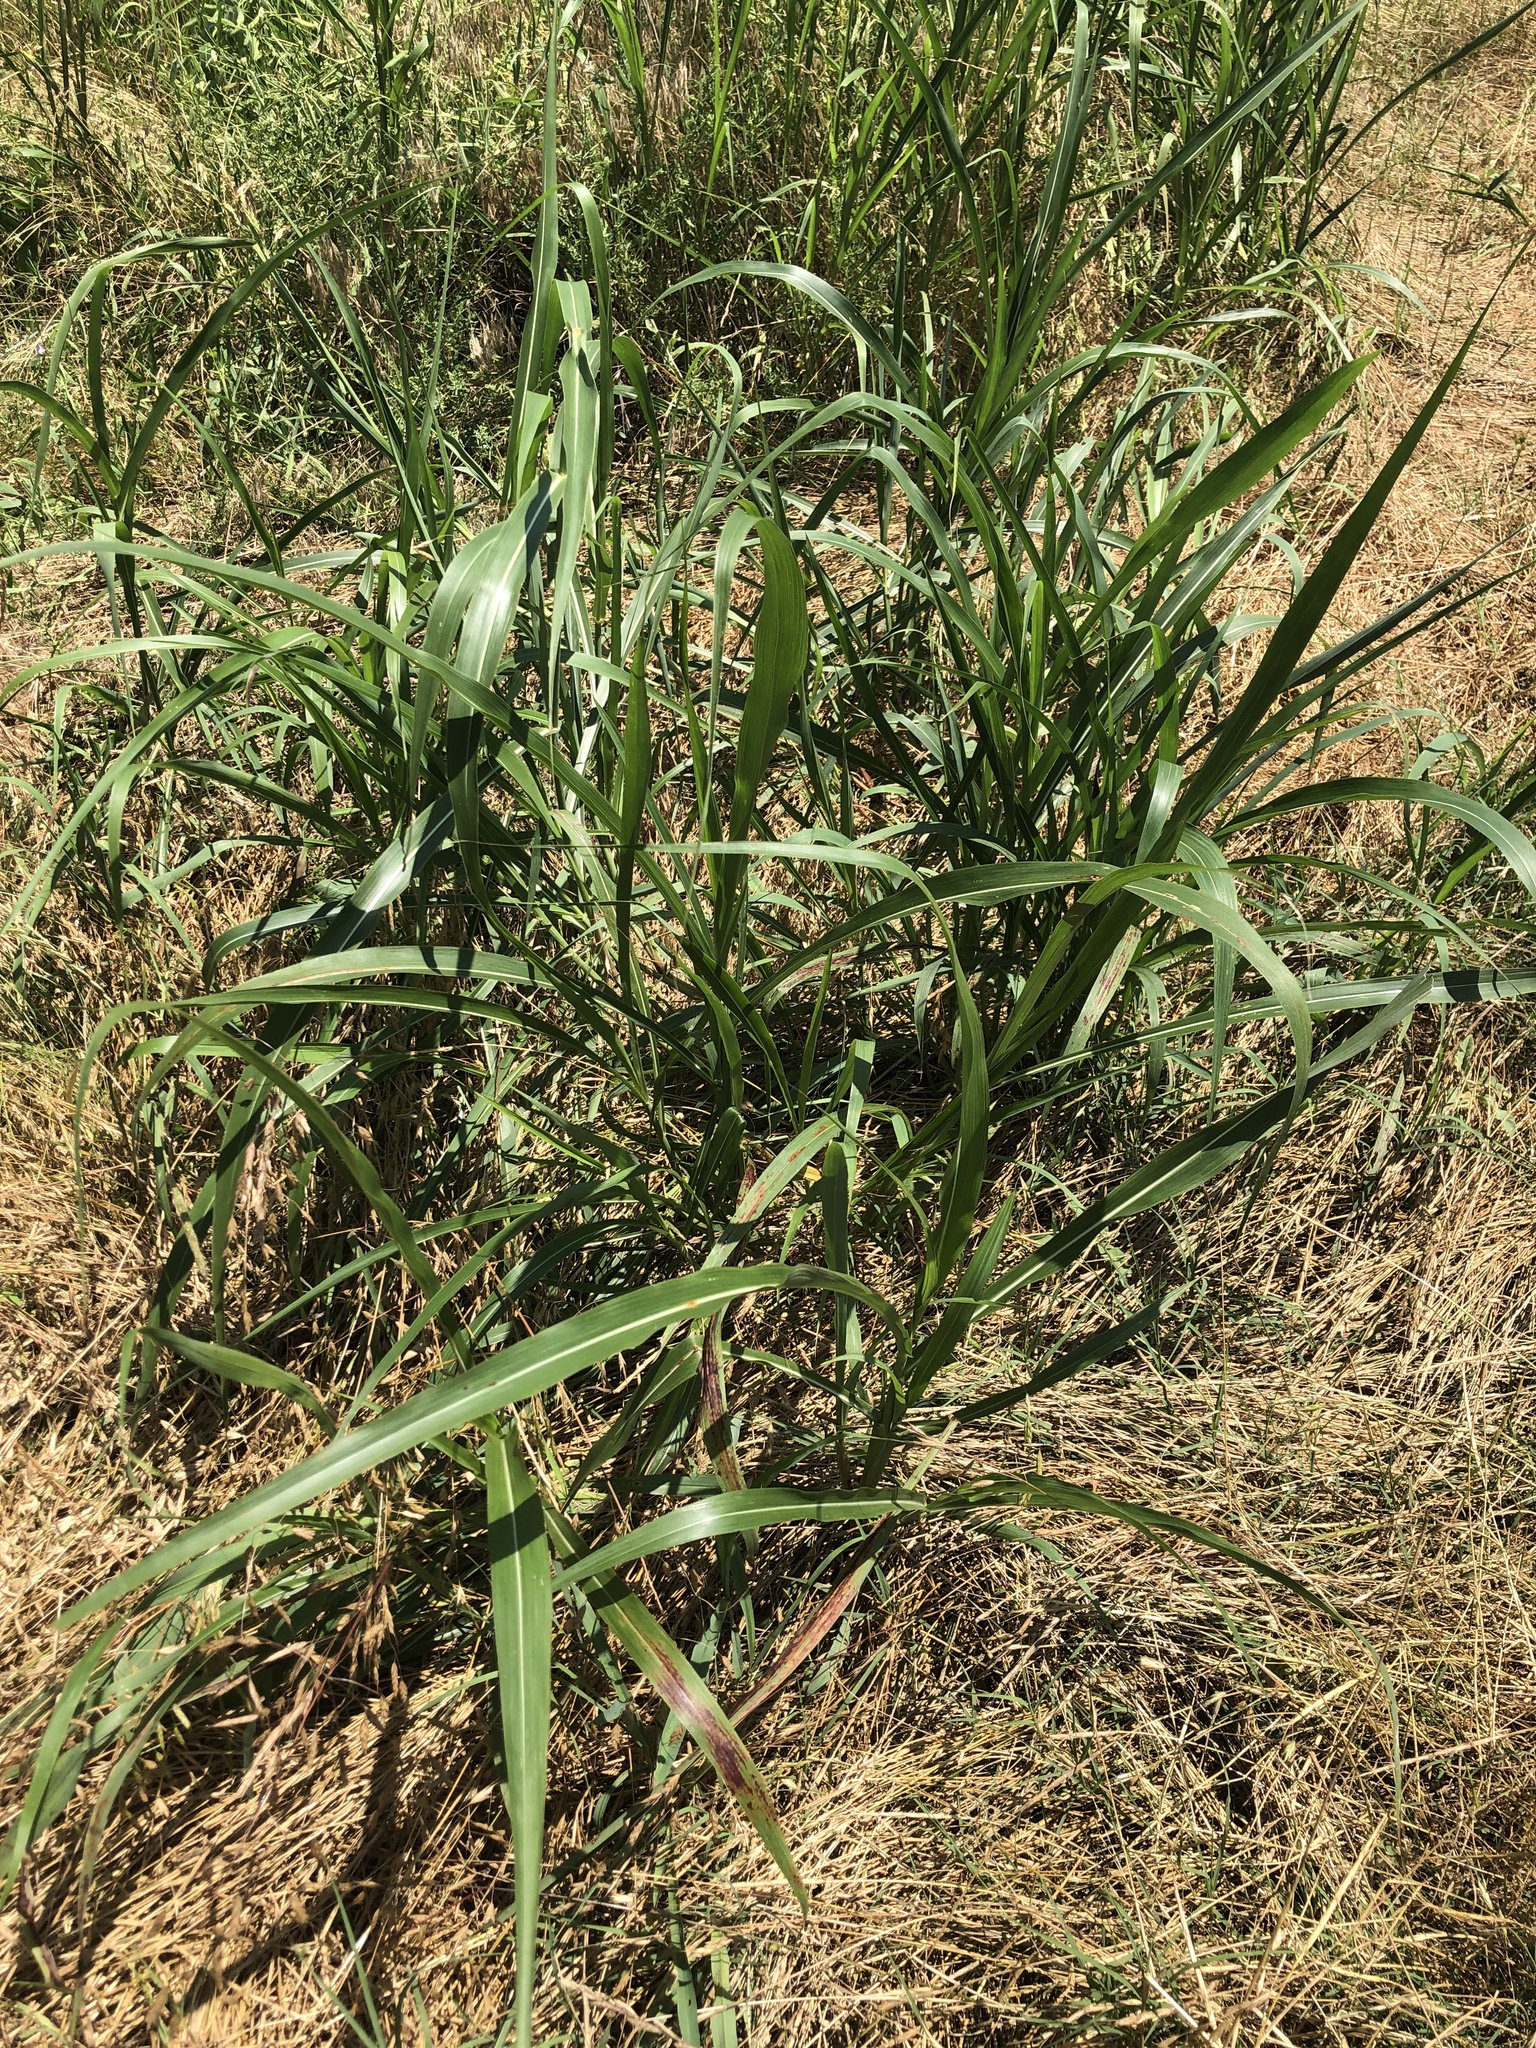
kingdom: Plantae
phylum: Tracheophyta
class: Liliopsida
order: Poales
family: Poaceae
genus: Sorghum
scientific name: Sorghum halepense
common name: Johnson-grass
